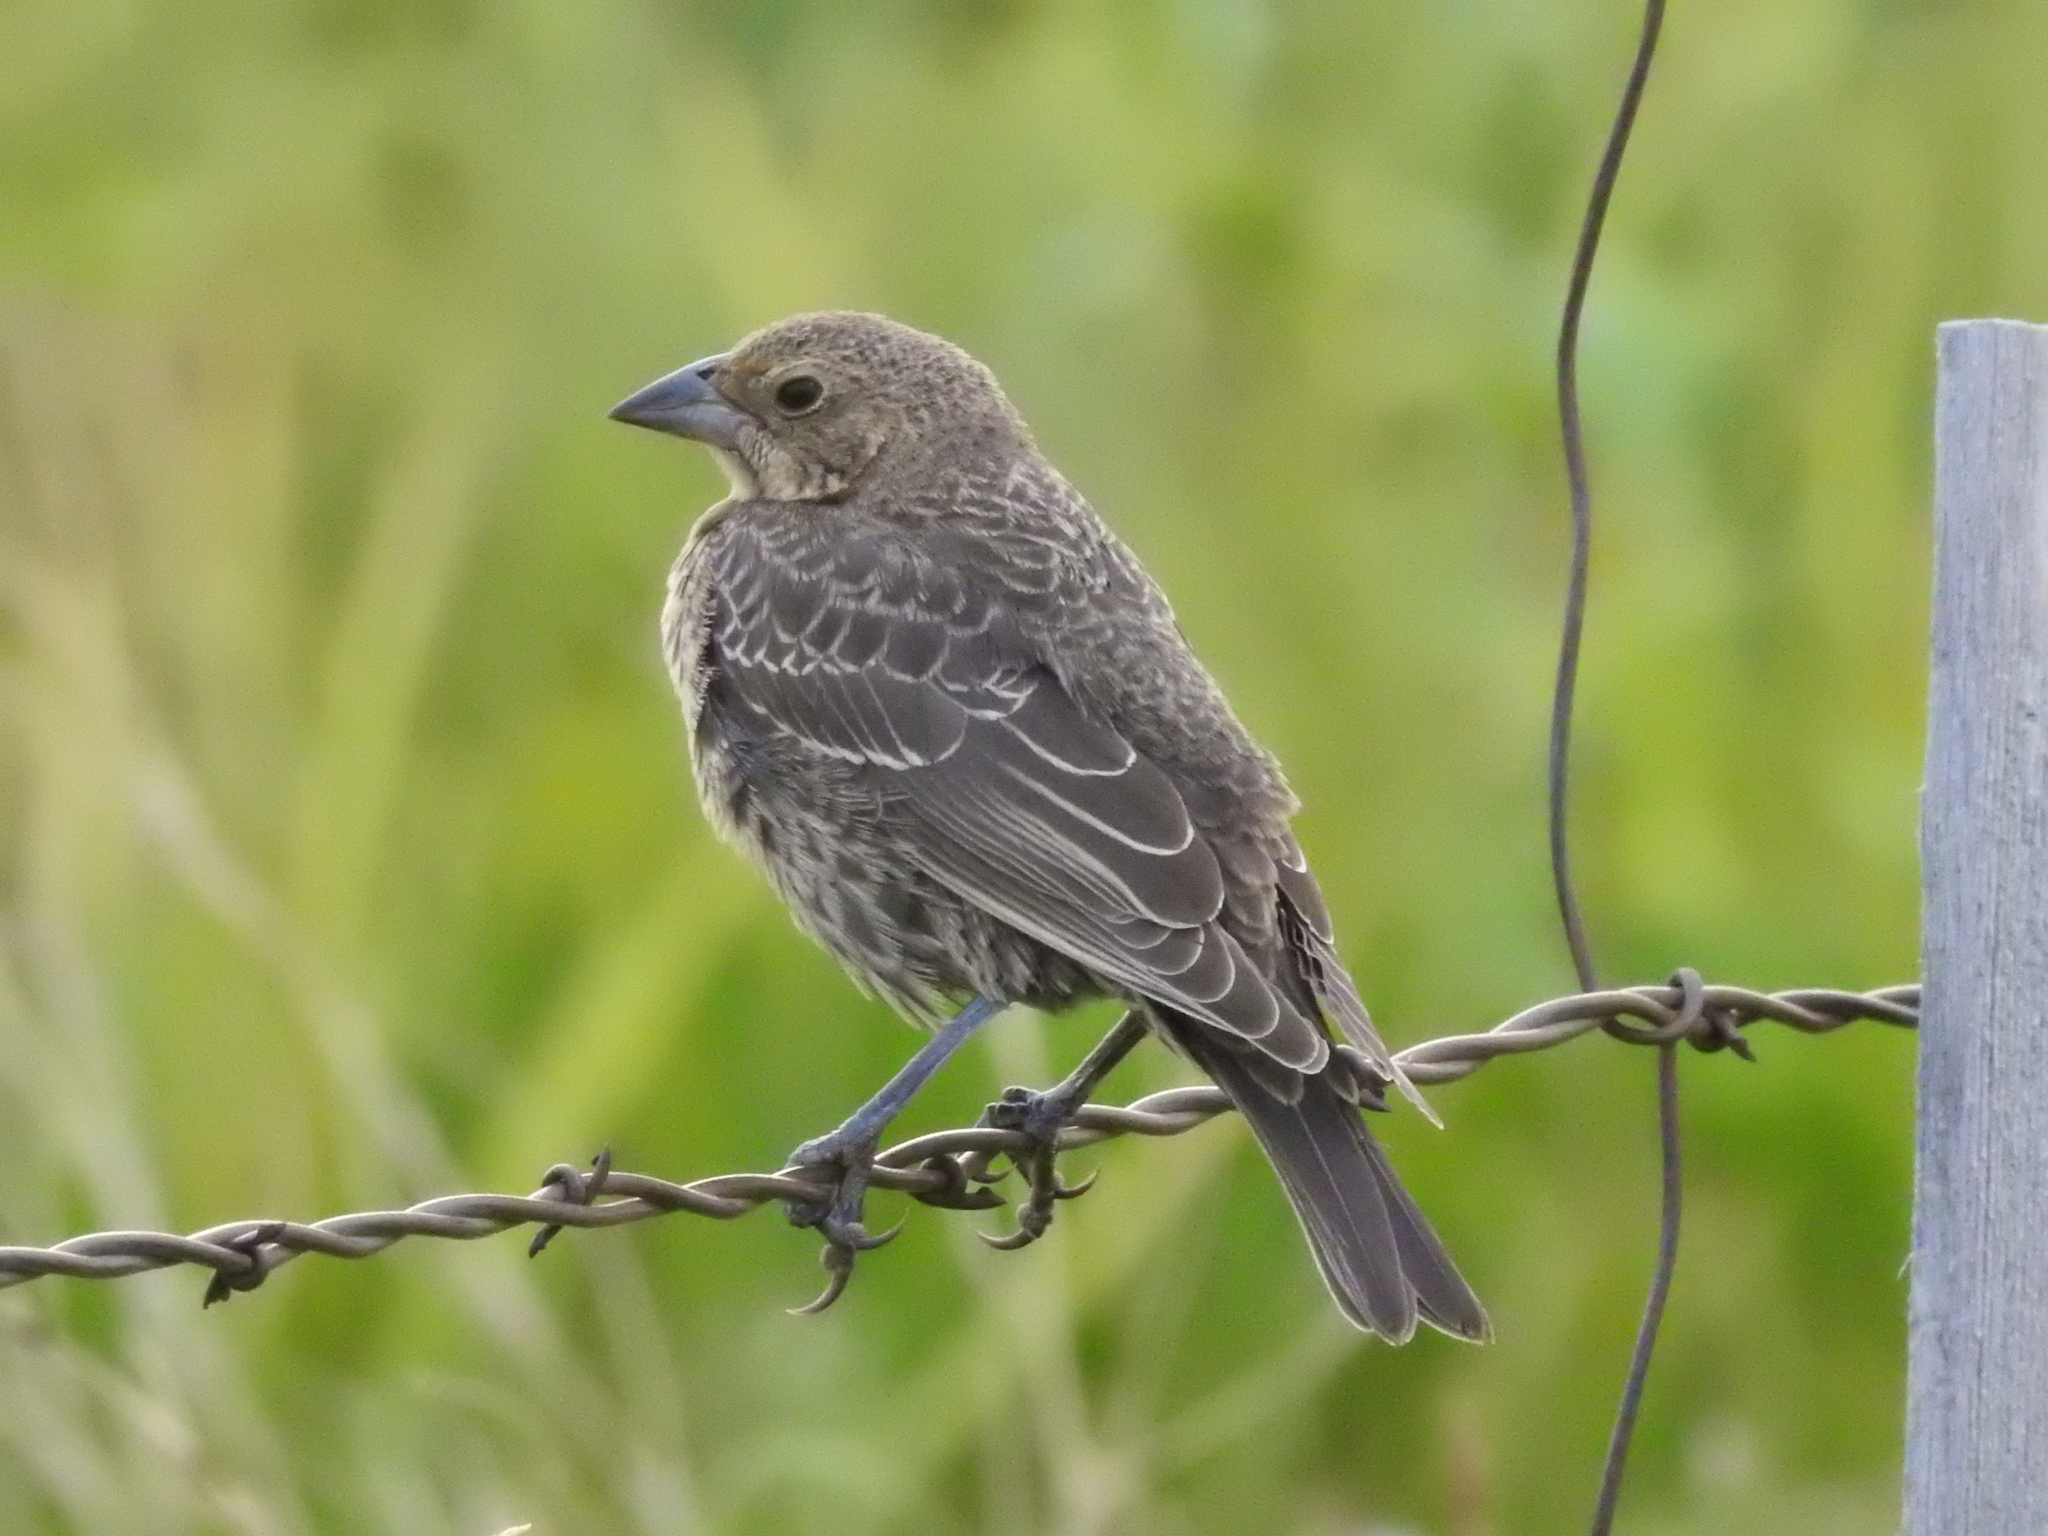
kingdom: Animalia
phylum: Chordata
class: Aves
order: Passeriformes
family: Icteridae
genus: Molothrus
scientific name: Molothrus ater
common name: Brown-headed cowbird
